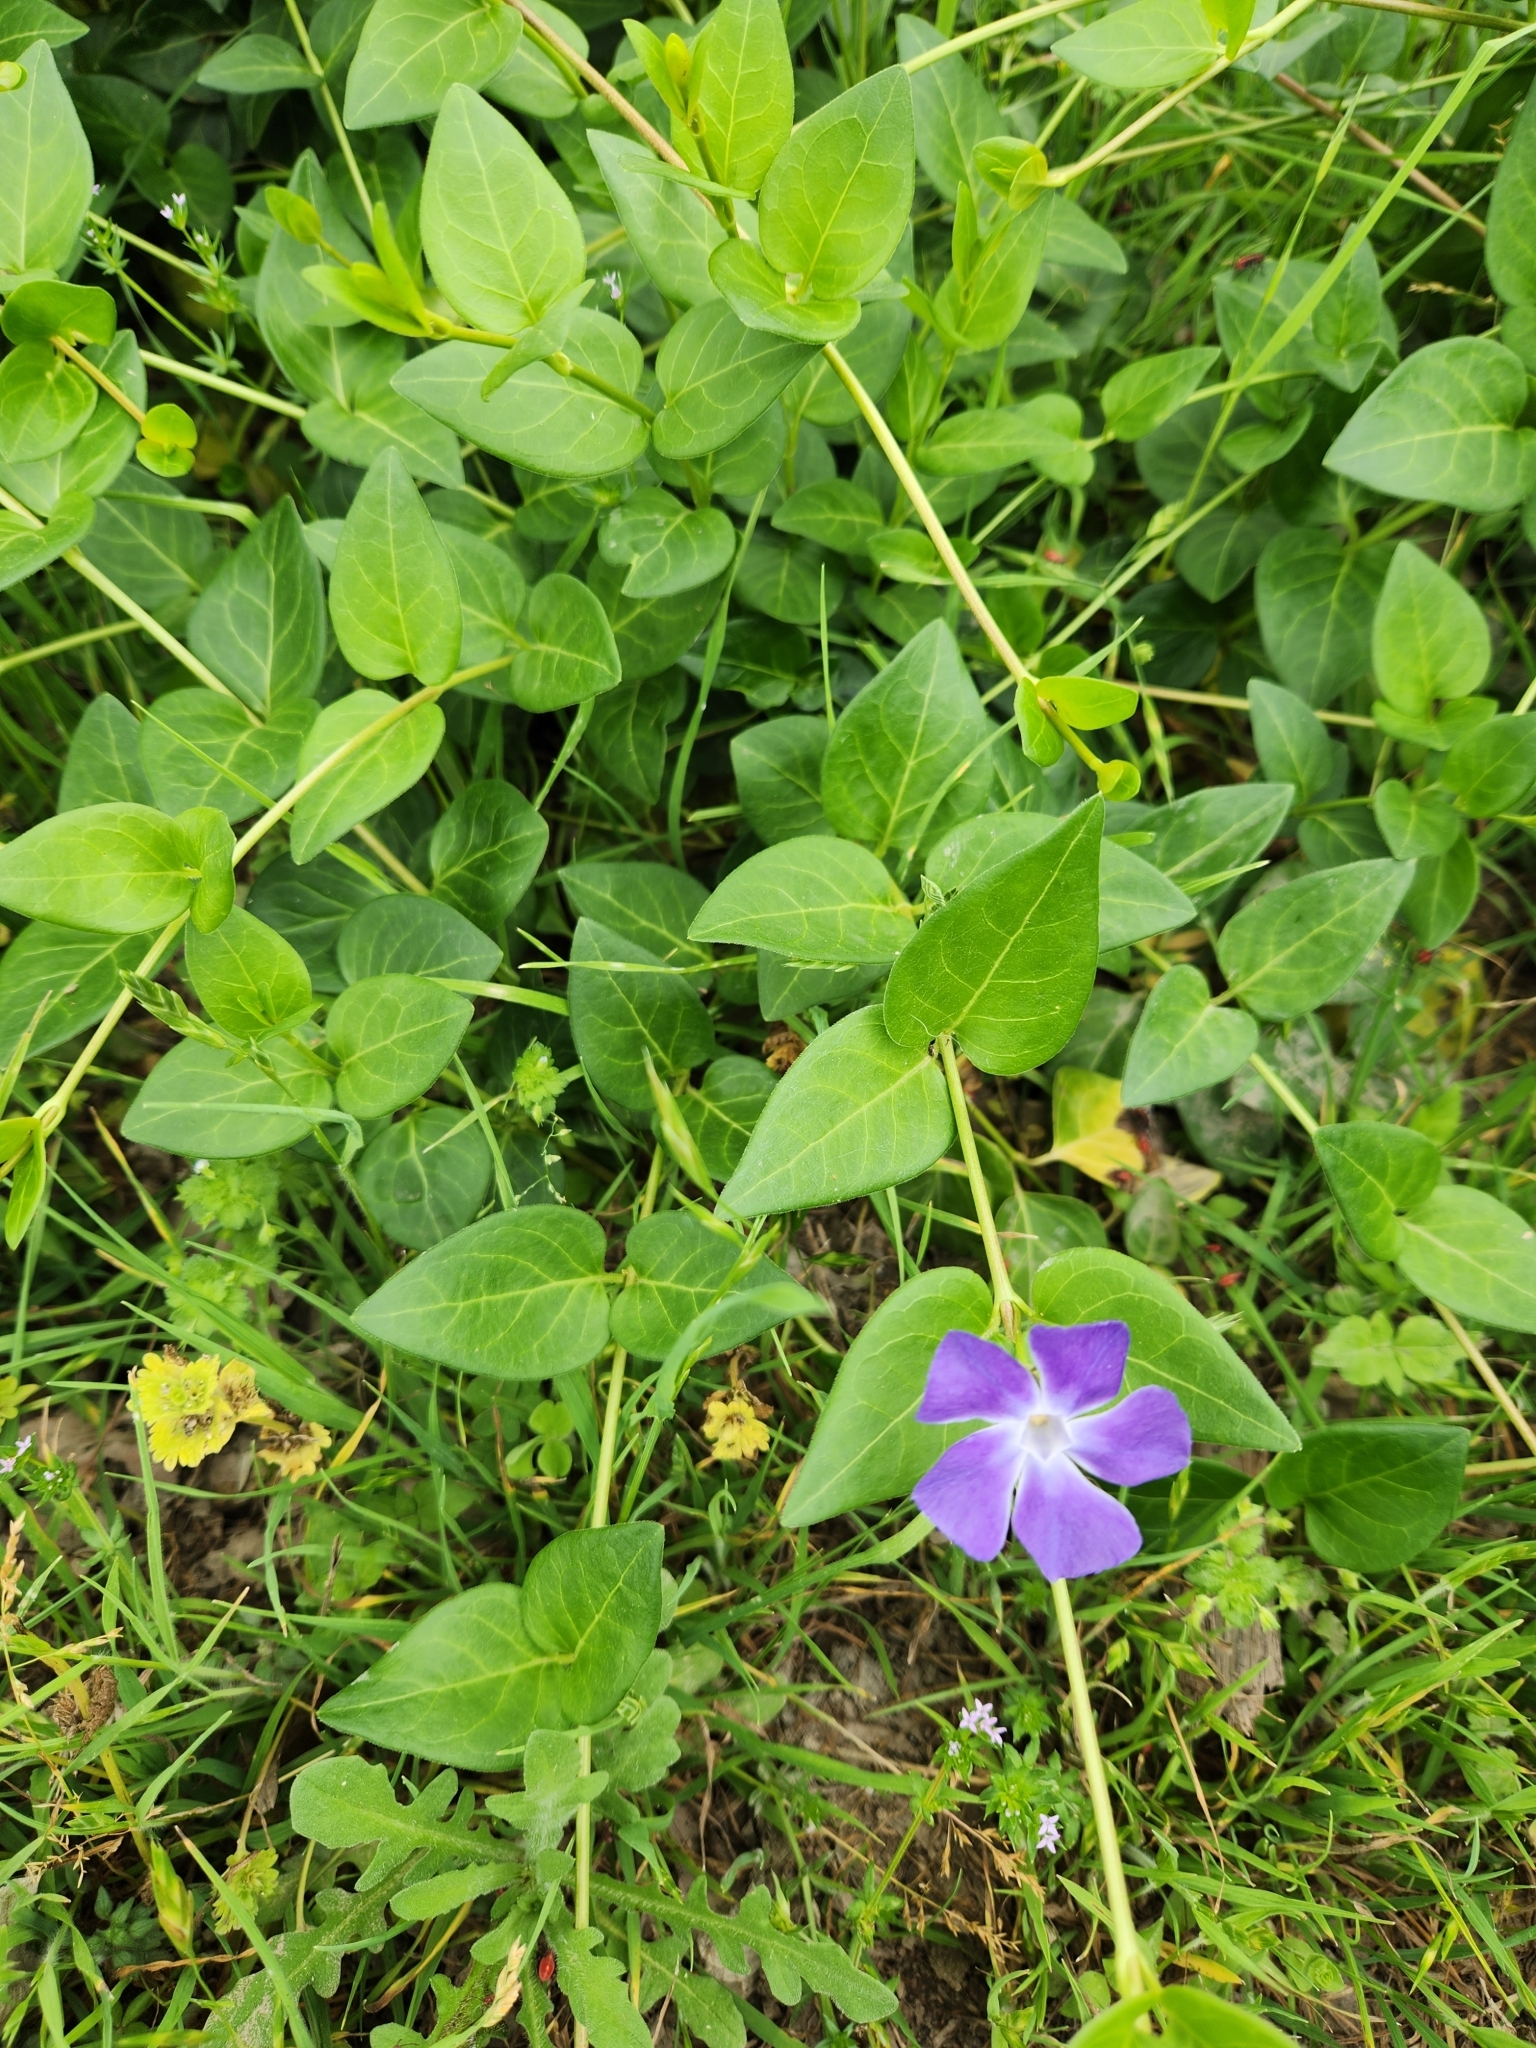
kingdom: Plantae
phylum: Tracheophyta
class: Magnoliopsida
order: Gentianales
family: Apocynaceae
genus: Vinca
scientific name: Vinca major
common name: Greater periwinkle
